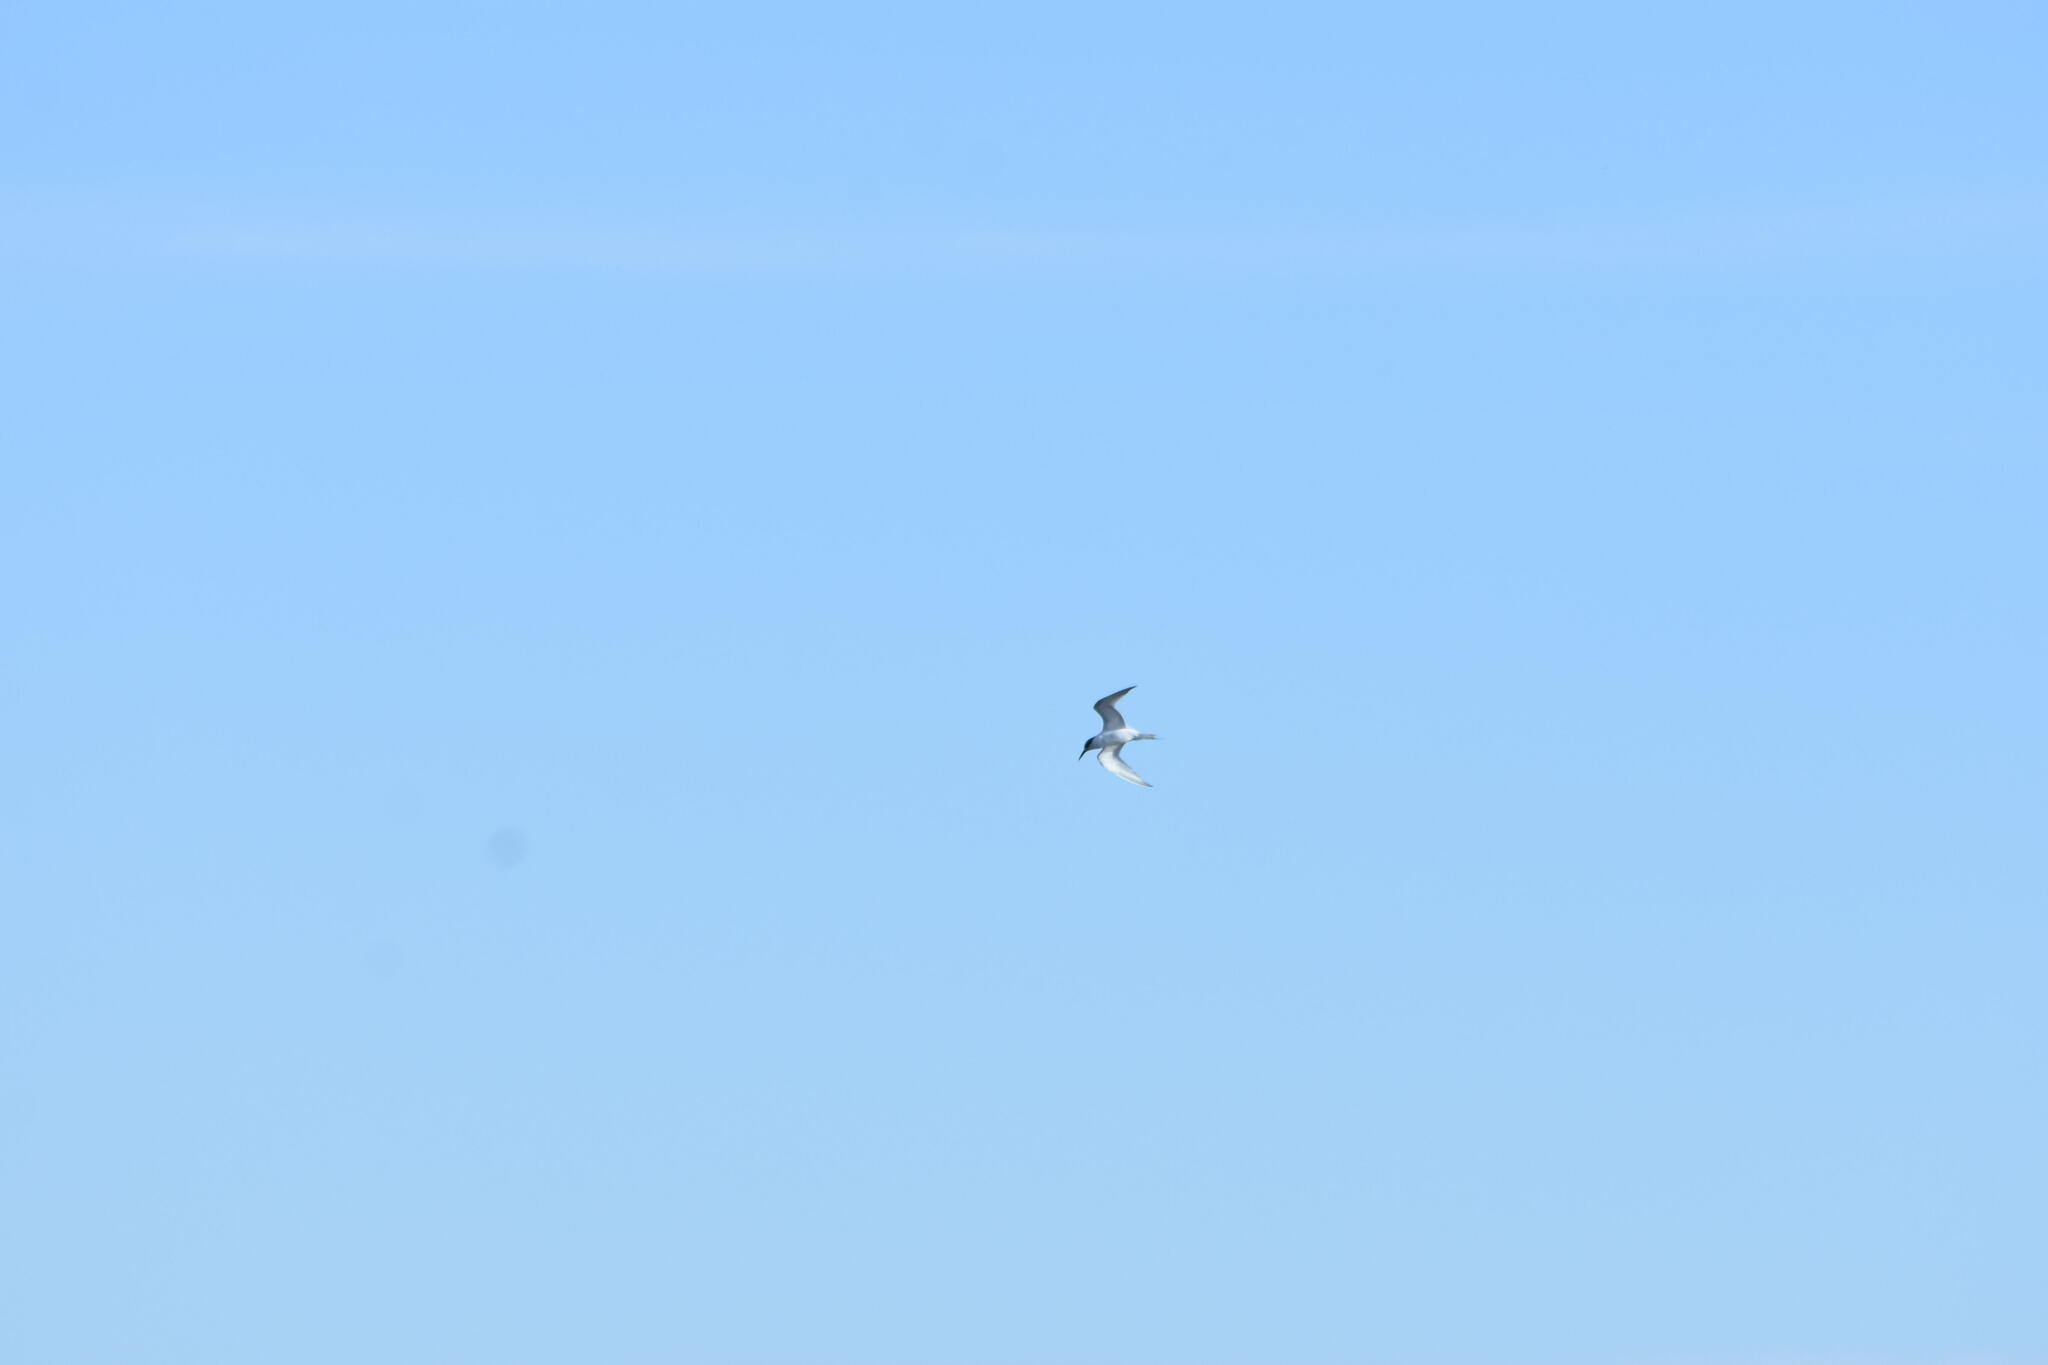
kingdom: Animalia
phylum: Chordata
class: Aves
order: Charadriiformes
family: Laridae
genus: Thalasseus
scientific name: Thalasseus sandvicensis
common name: Sandwich tern
